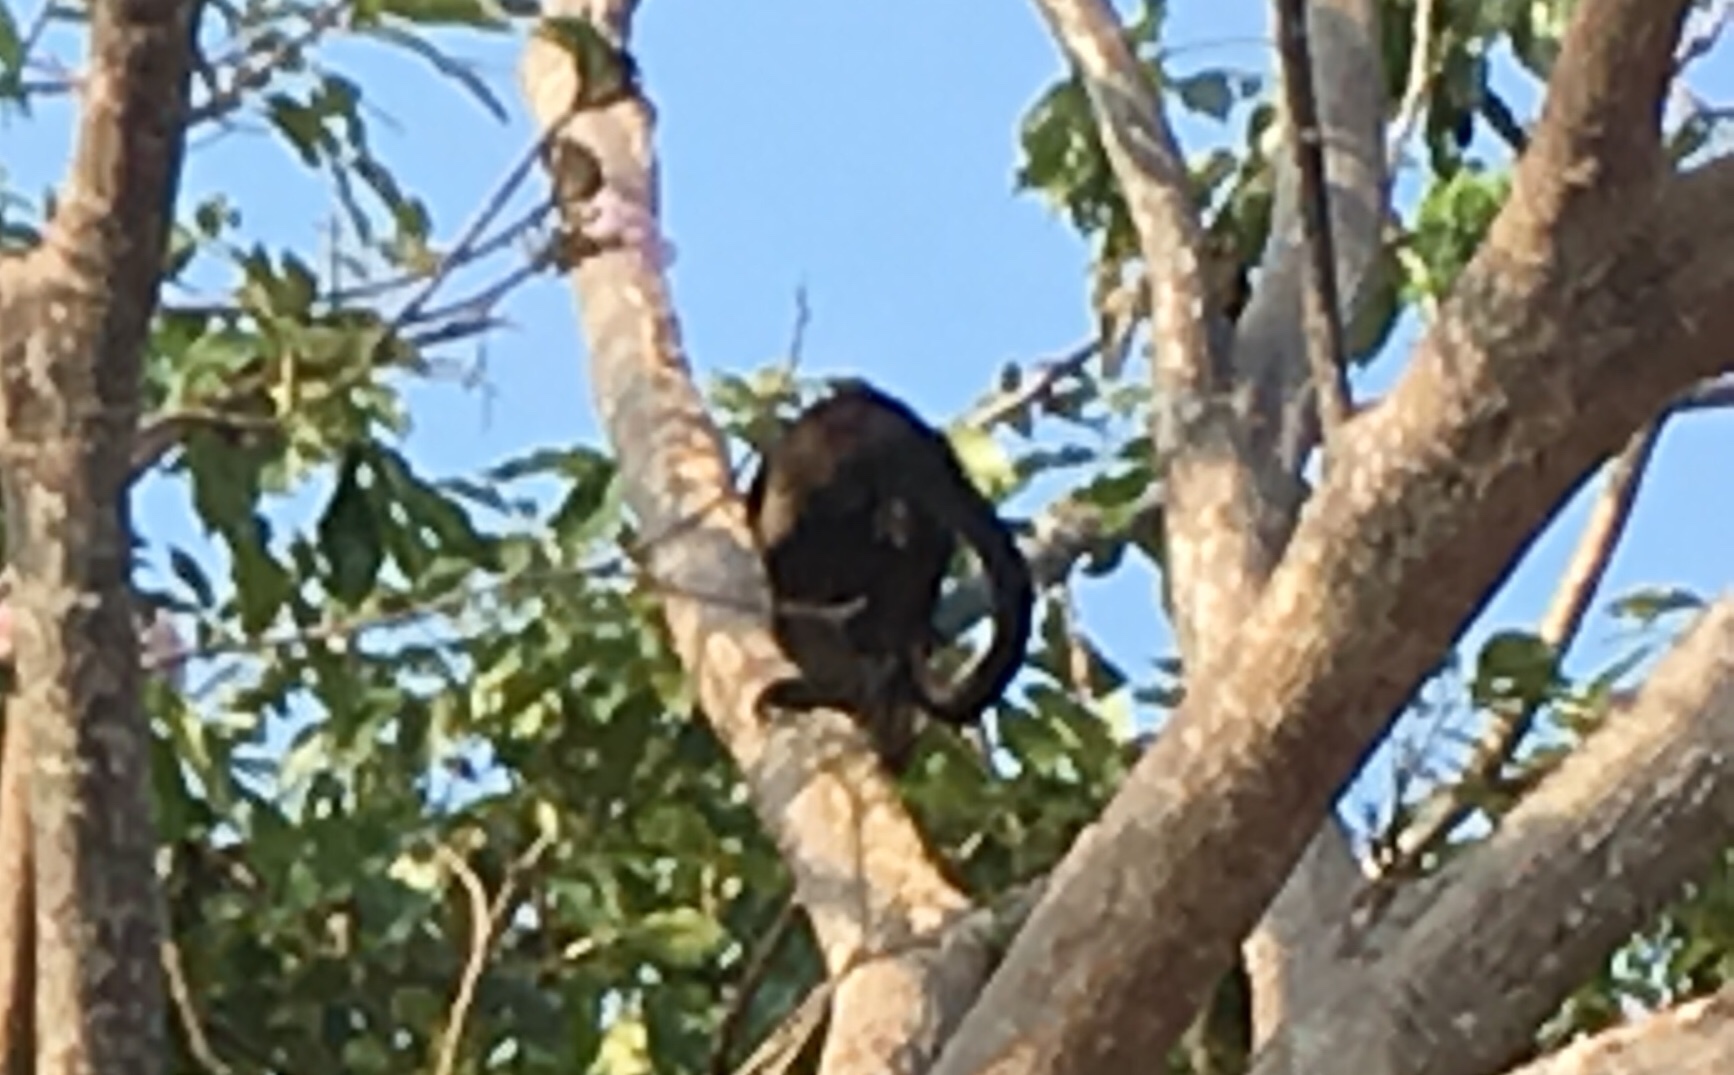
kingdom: Animalia
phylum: Chordata
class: Mammalia
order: Primates
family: Atelidae
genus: Alouatta
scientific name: Alouatta palliata
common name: Mantled howler
